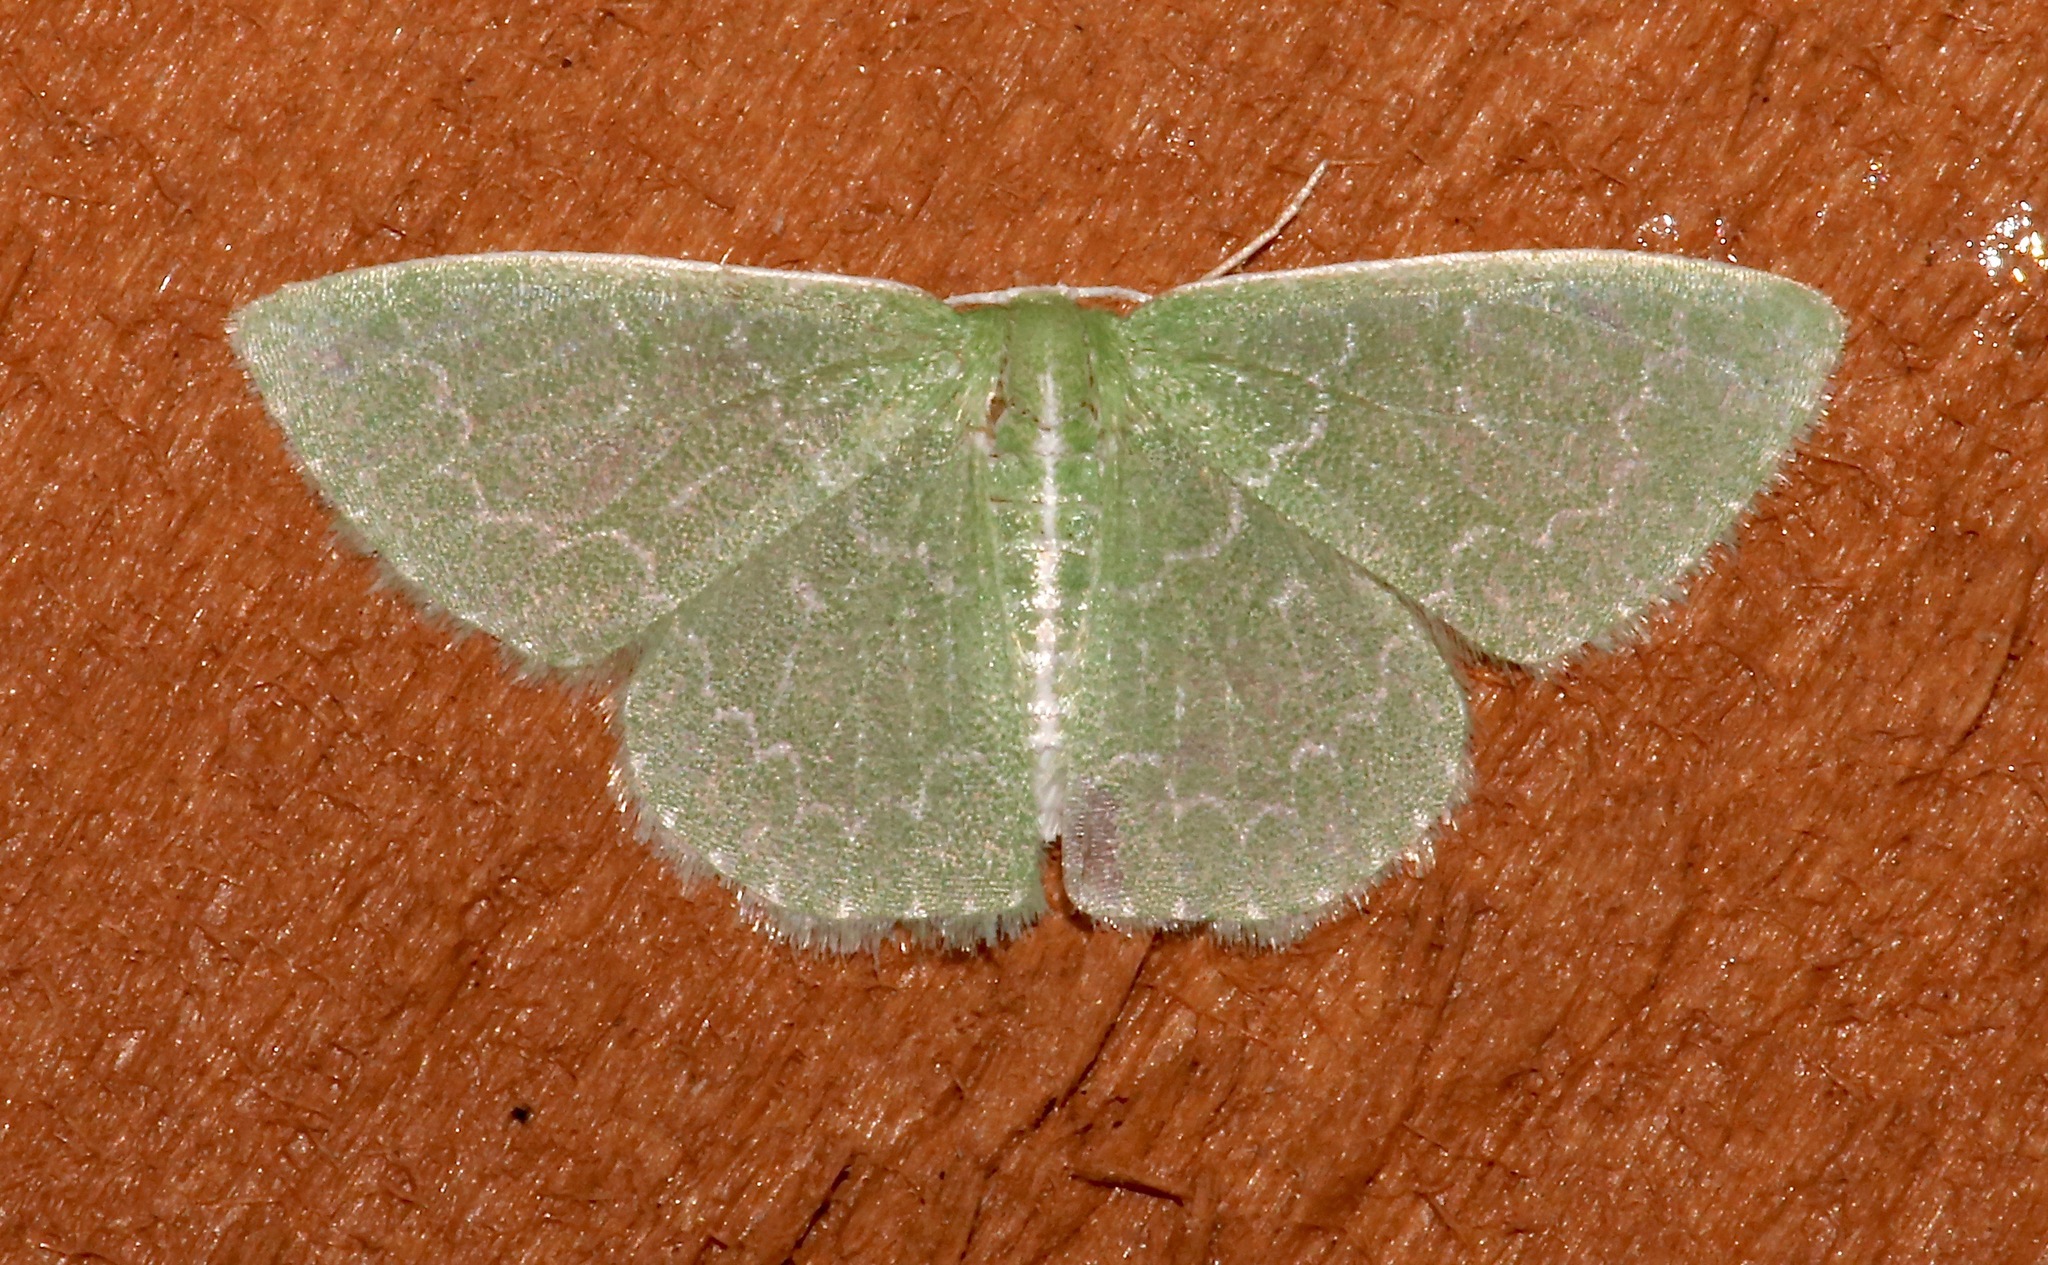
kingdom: Animalia
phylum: Arthropoda
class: Insecta
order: Lepidoptera
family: Geometridae
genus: Synchlora
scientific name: Synchlora frondaria
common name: Southern emerald
